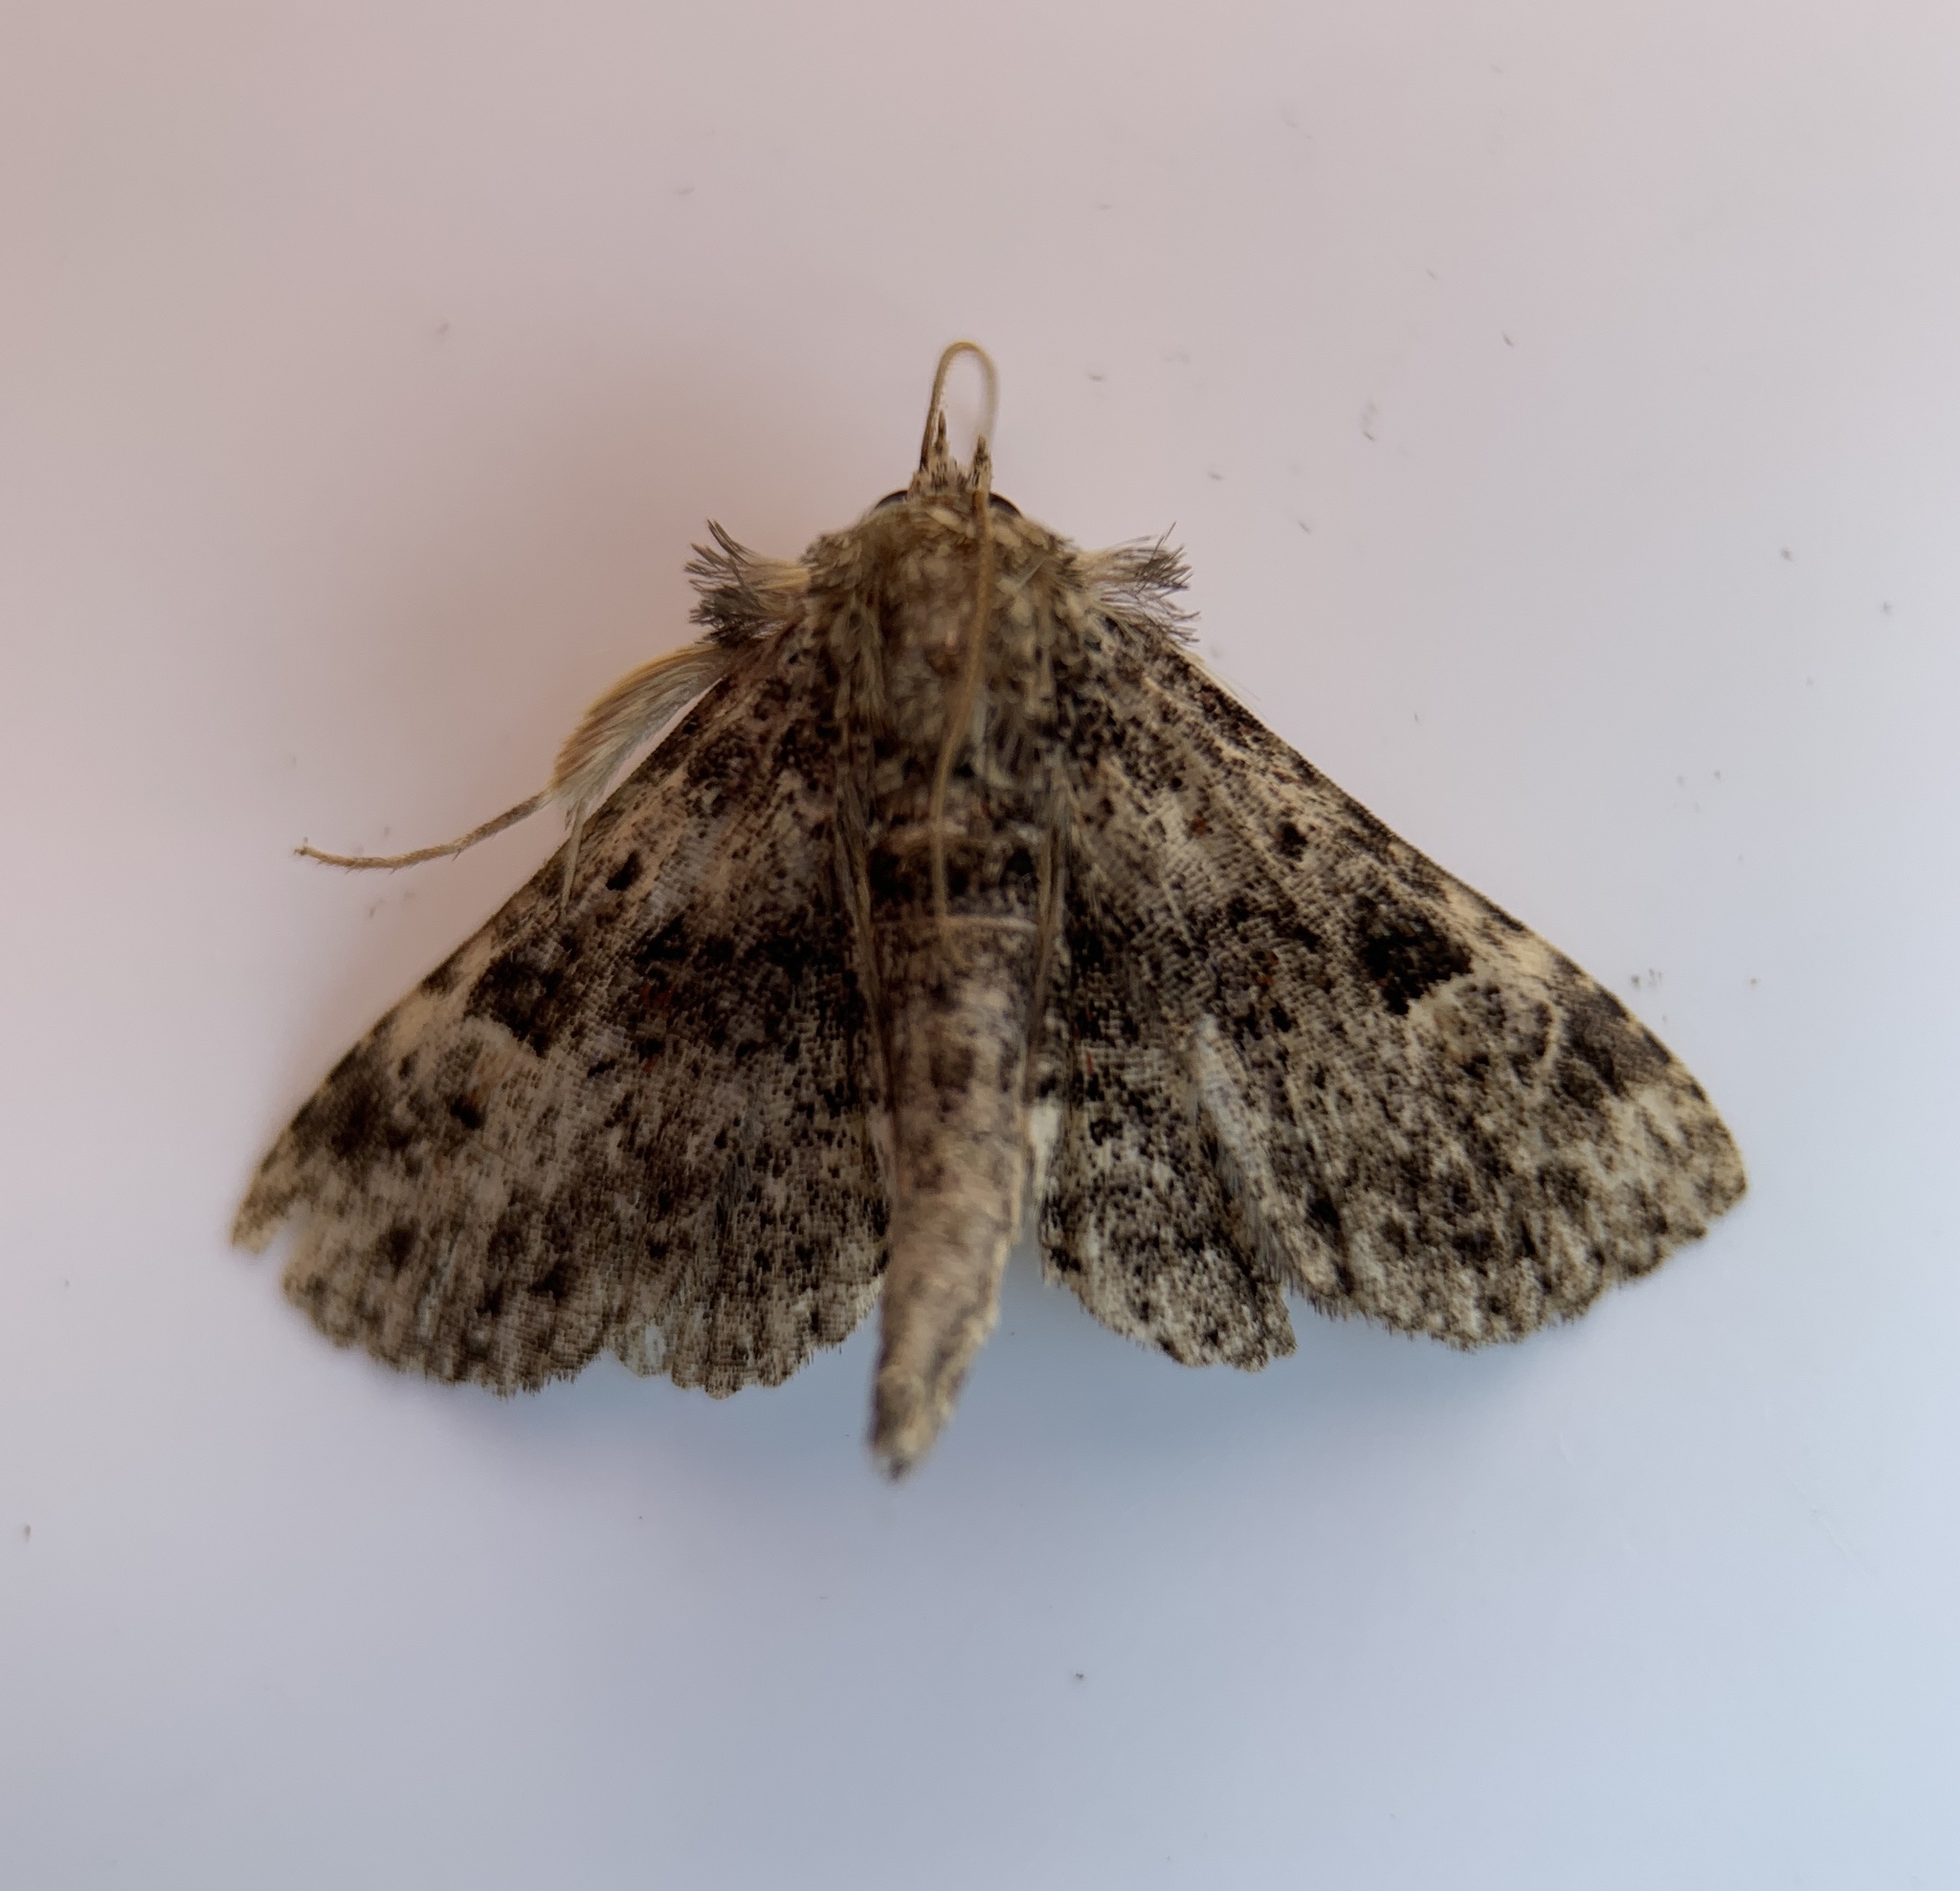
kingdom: Animalia
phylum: Arthropoda
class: Insecta
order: Lepidoptera
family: Erebidae
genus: Metalectra
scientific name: Metalectra discalis
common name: Common fungus moth
